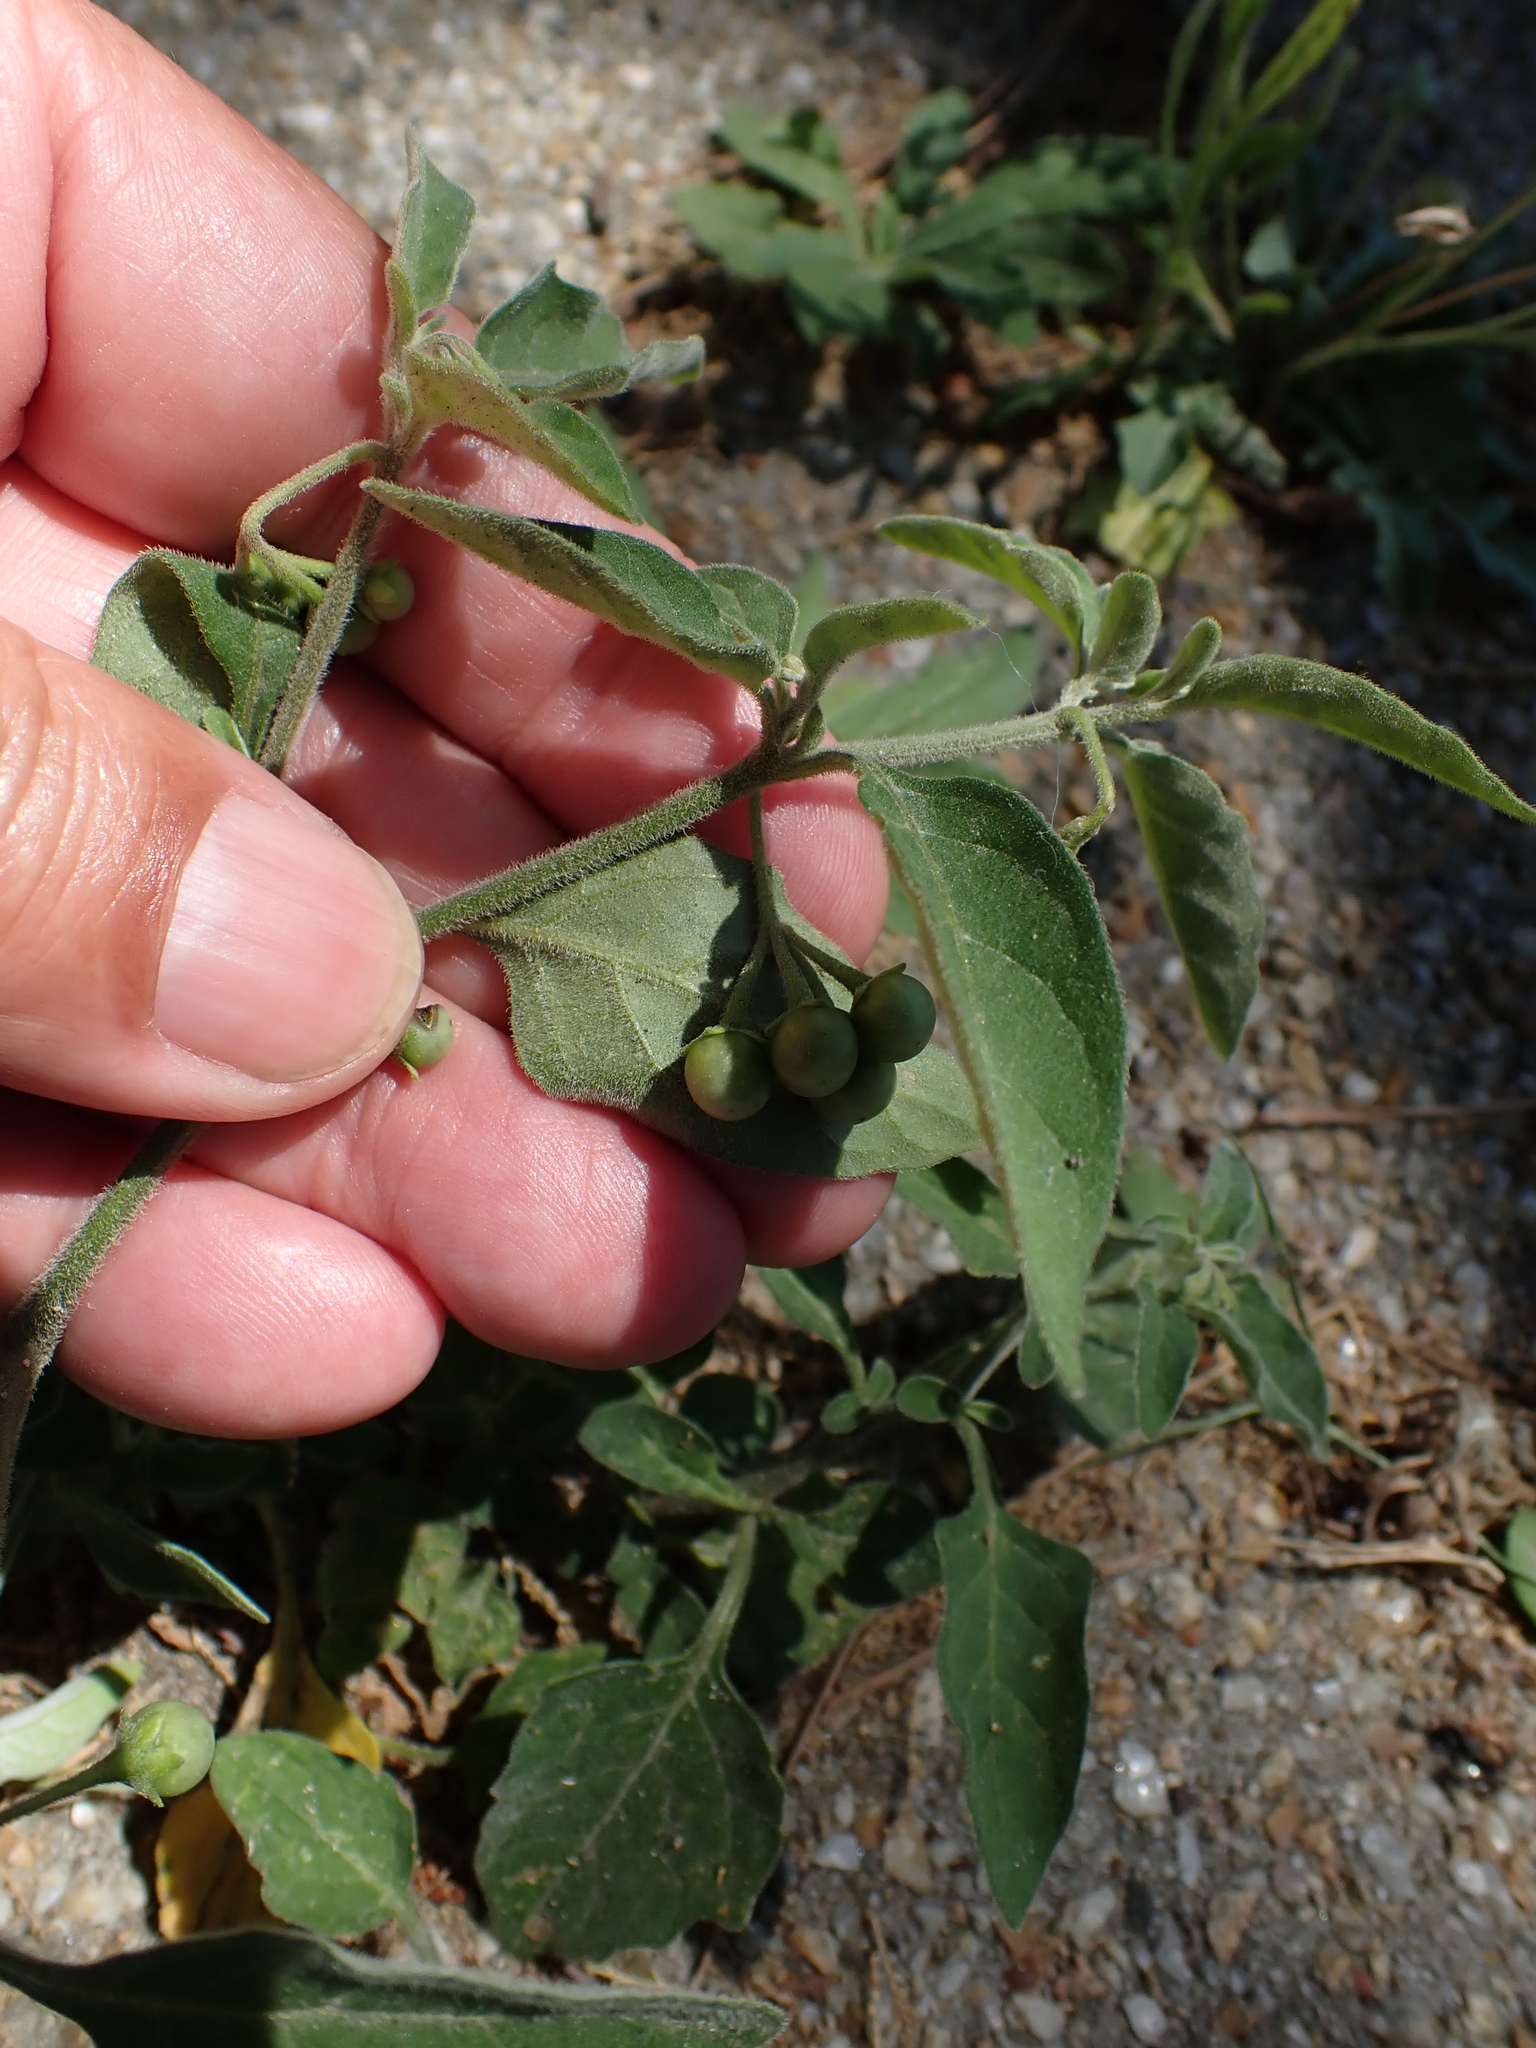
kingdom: Plantae
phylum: Tracheophyta
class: Magnoliopsida
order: Solanales
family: Solanaceae
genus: Solanum
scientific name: Solanum chenopodioides
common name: Tall nightshade
